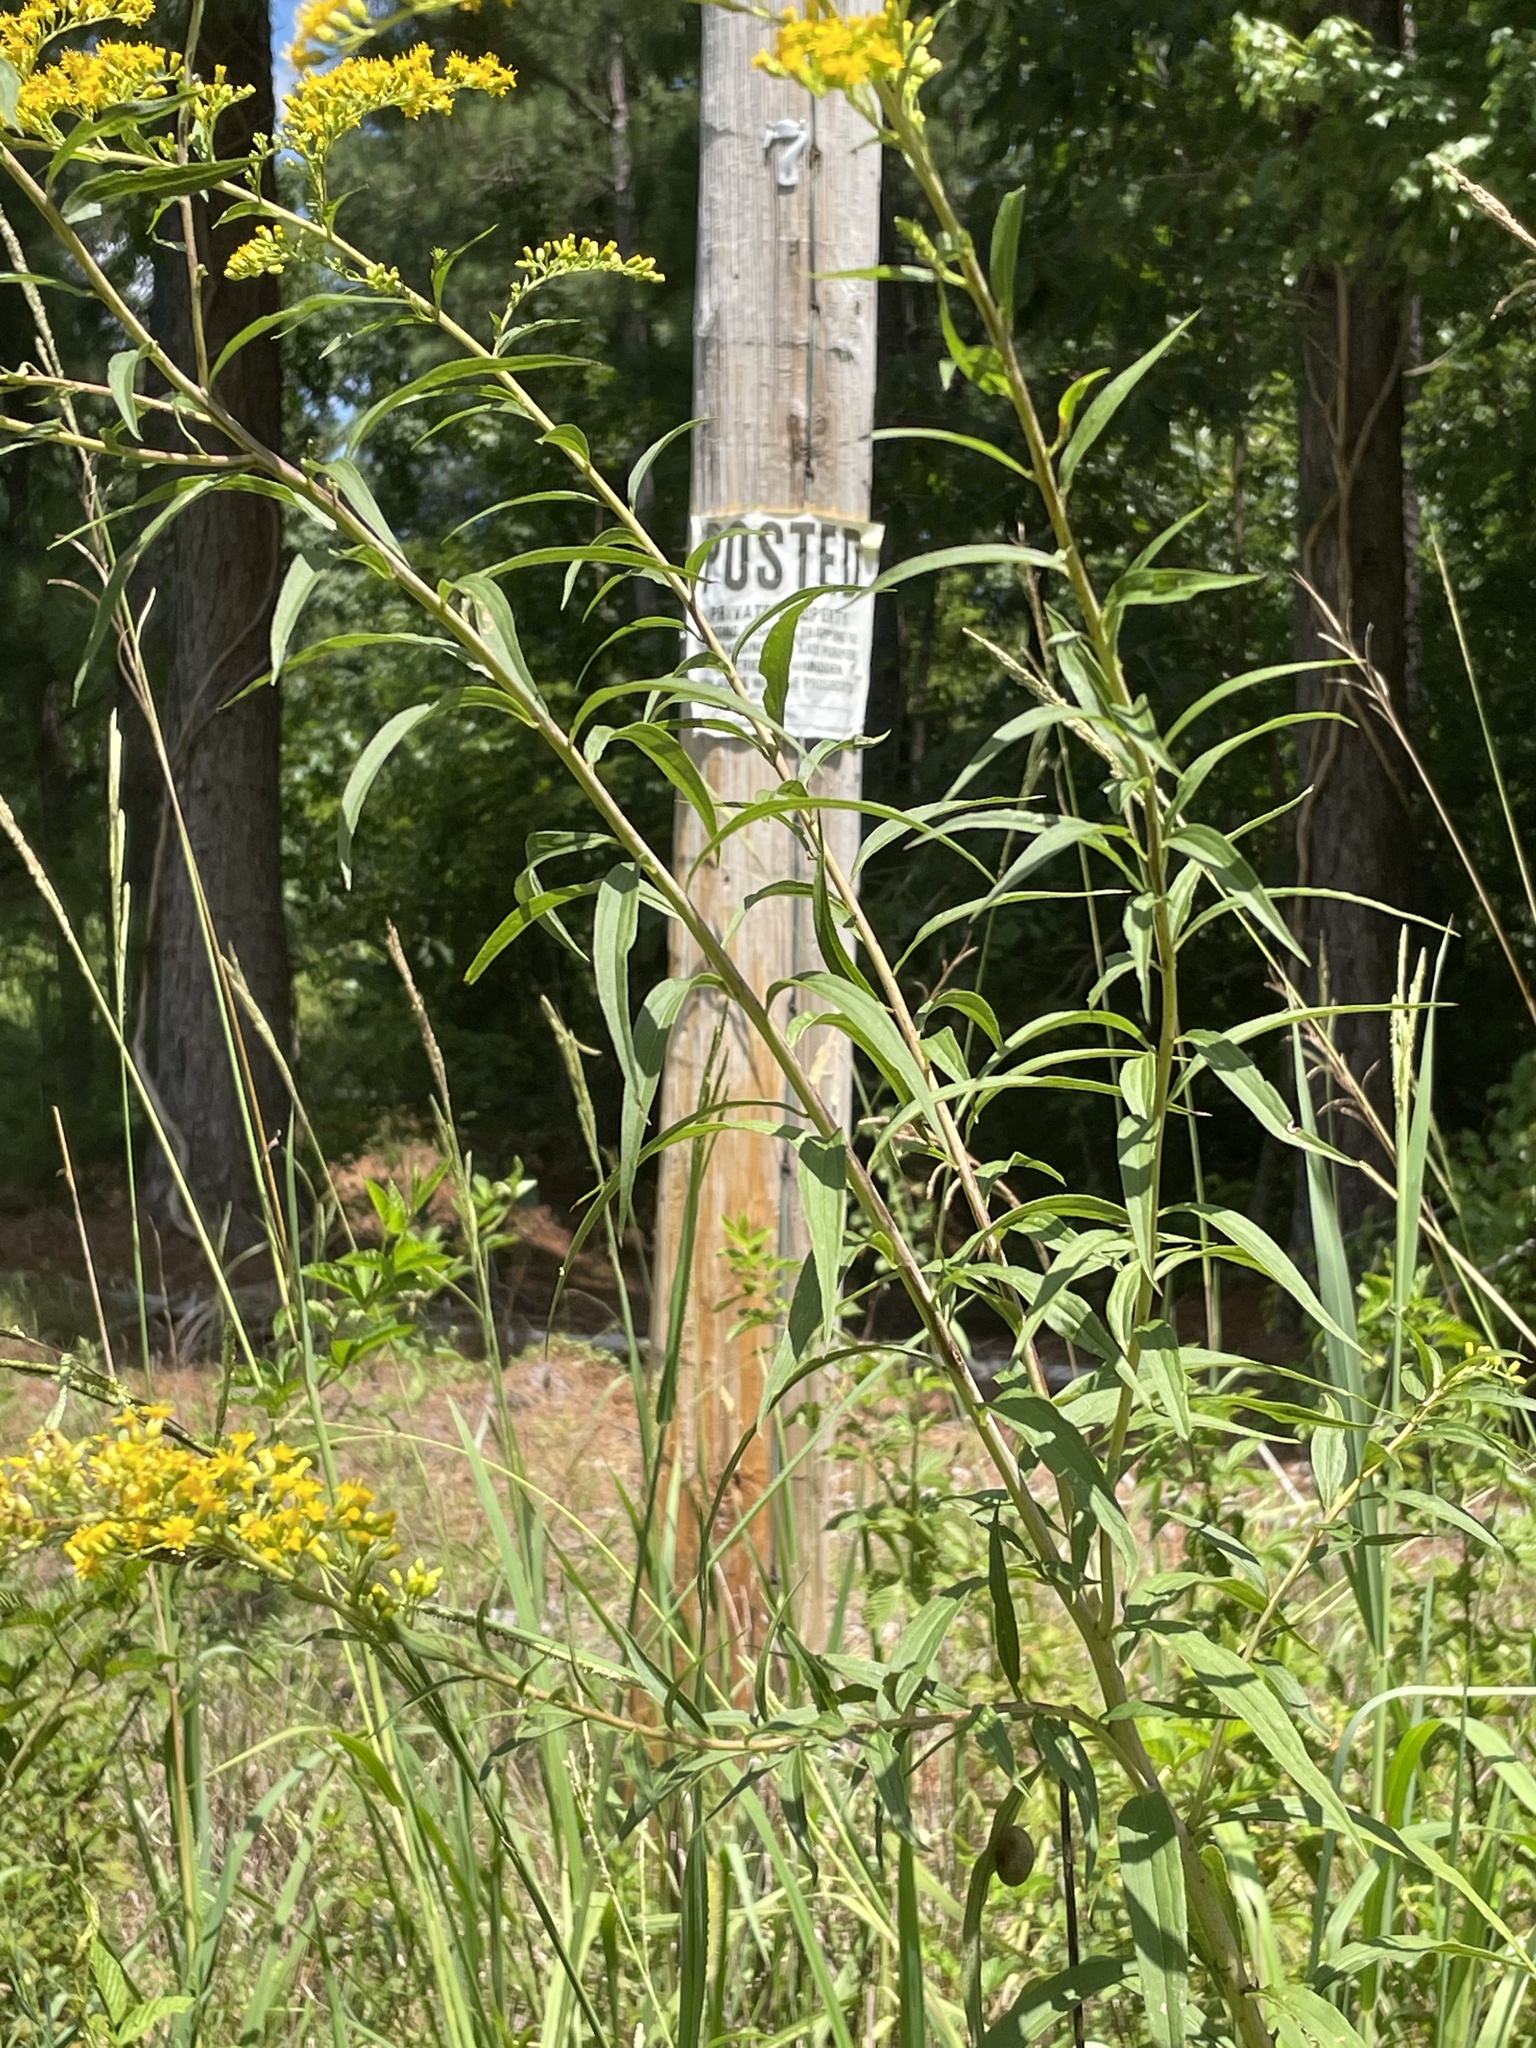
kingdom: Plantae
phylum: Tracheophyta
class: Magnoliopsida
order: Asterales
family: Asteraceae
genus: Solidago
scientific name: Solidago gigantea
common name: Giant goldenrod
